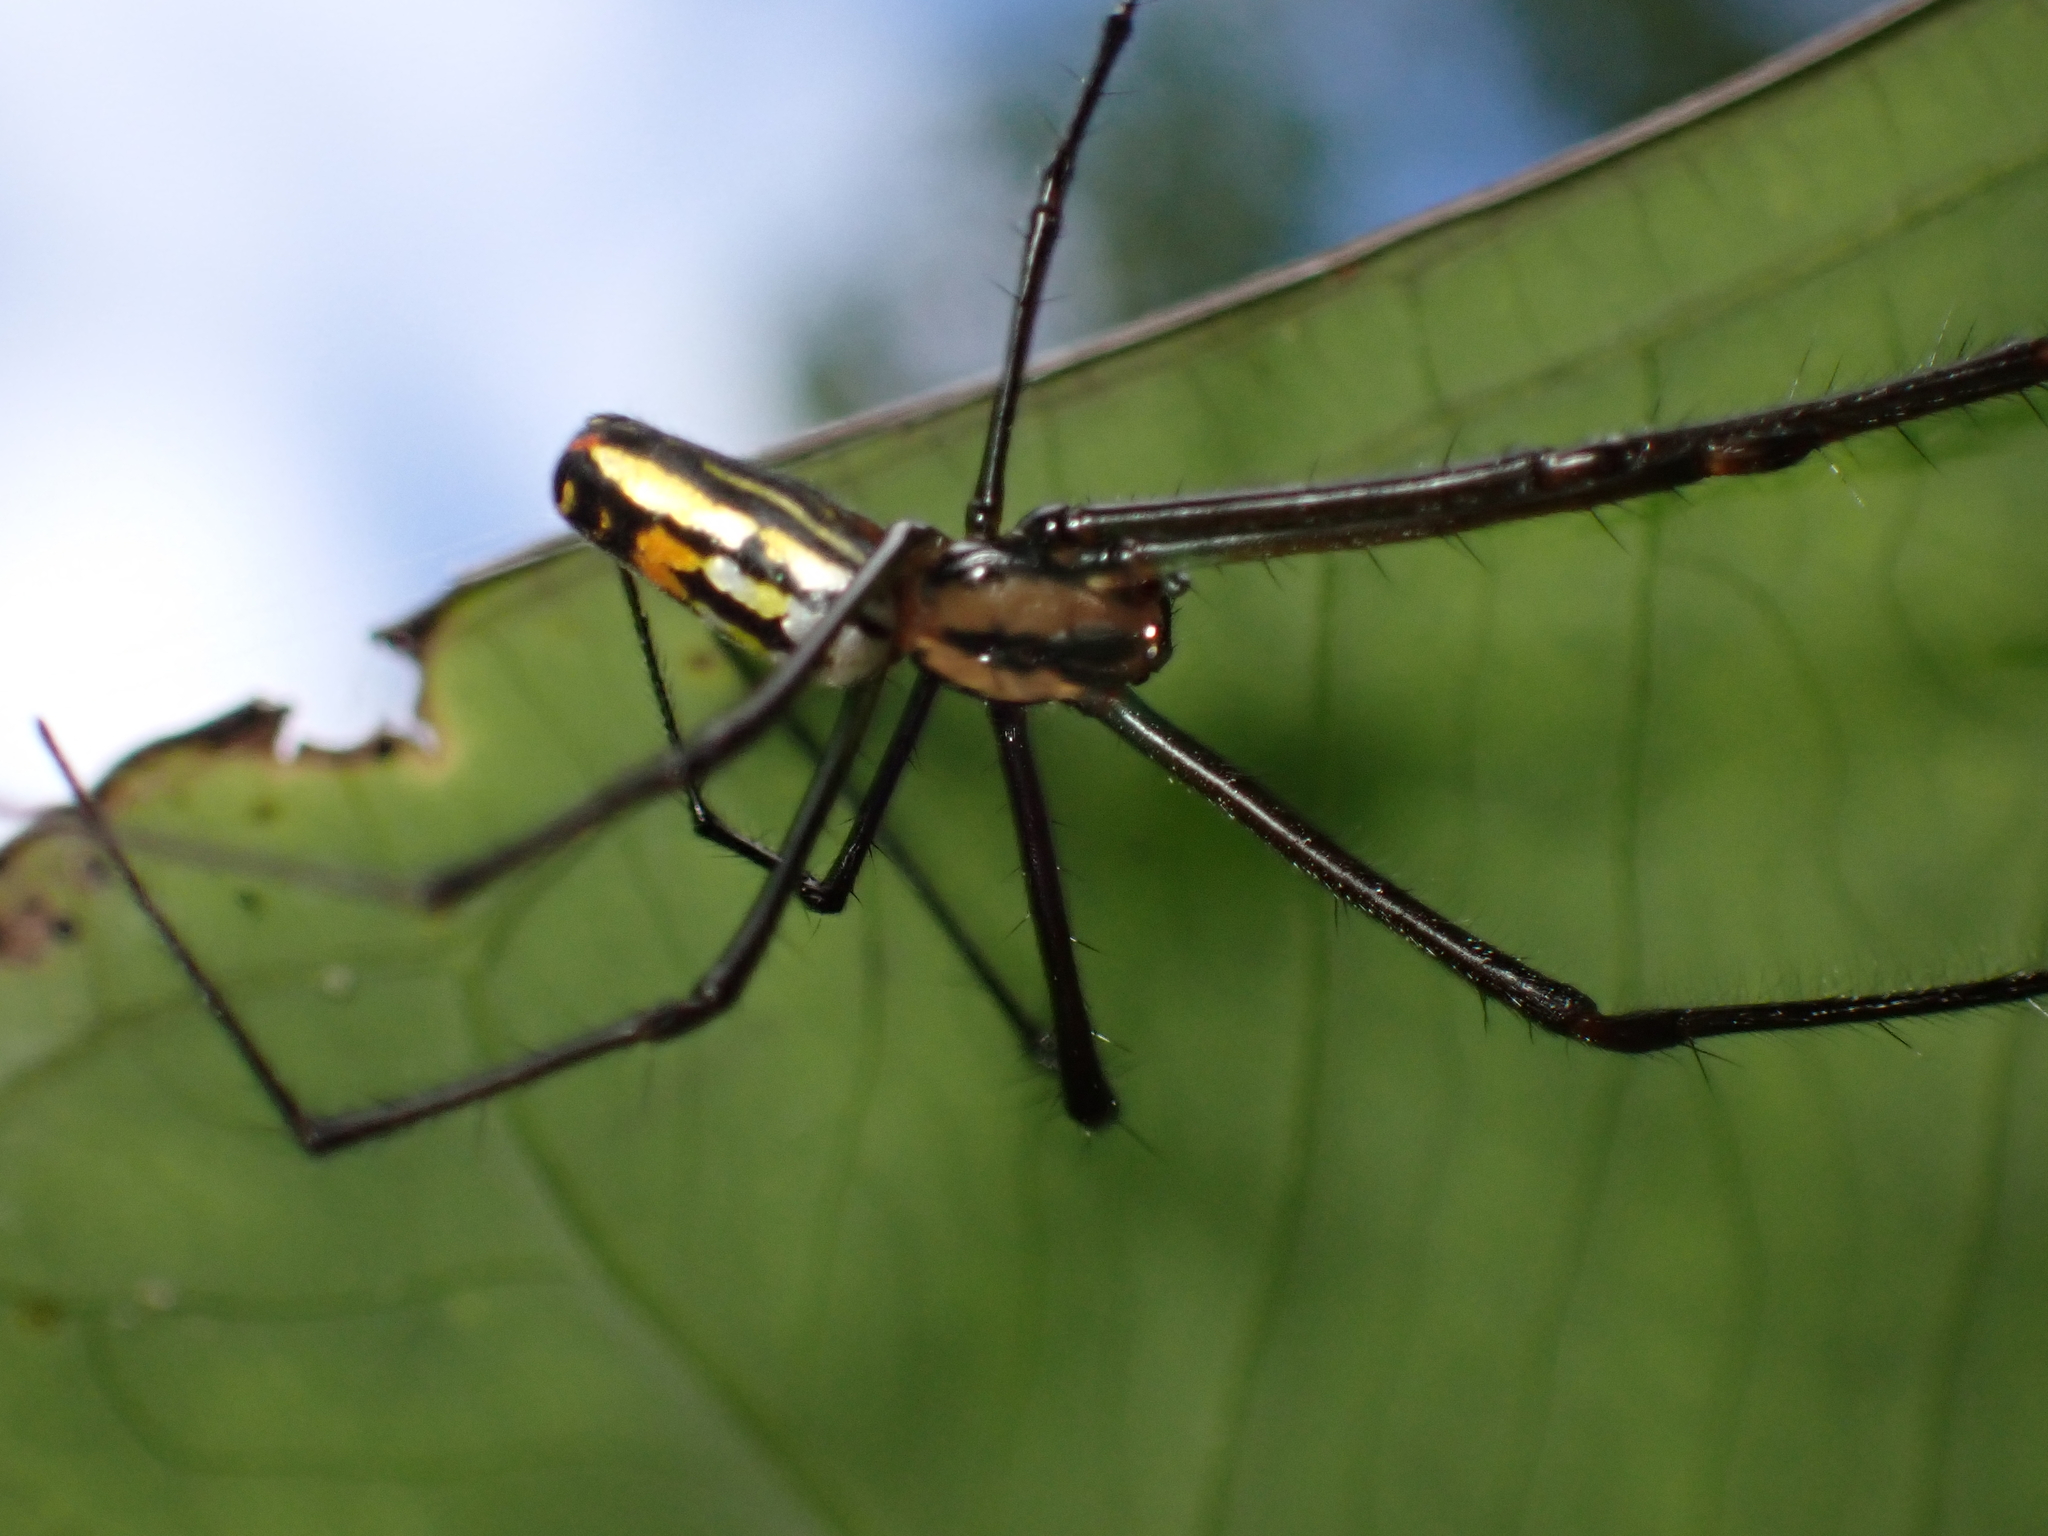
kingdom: Animalia
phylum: Arthropoda
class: Arachnida
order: Araneae
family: Tetragnathidae
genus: Leucauge
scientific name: Leucauge hebridisiana
